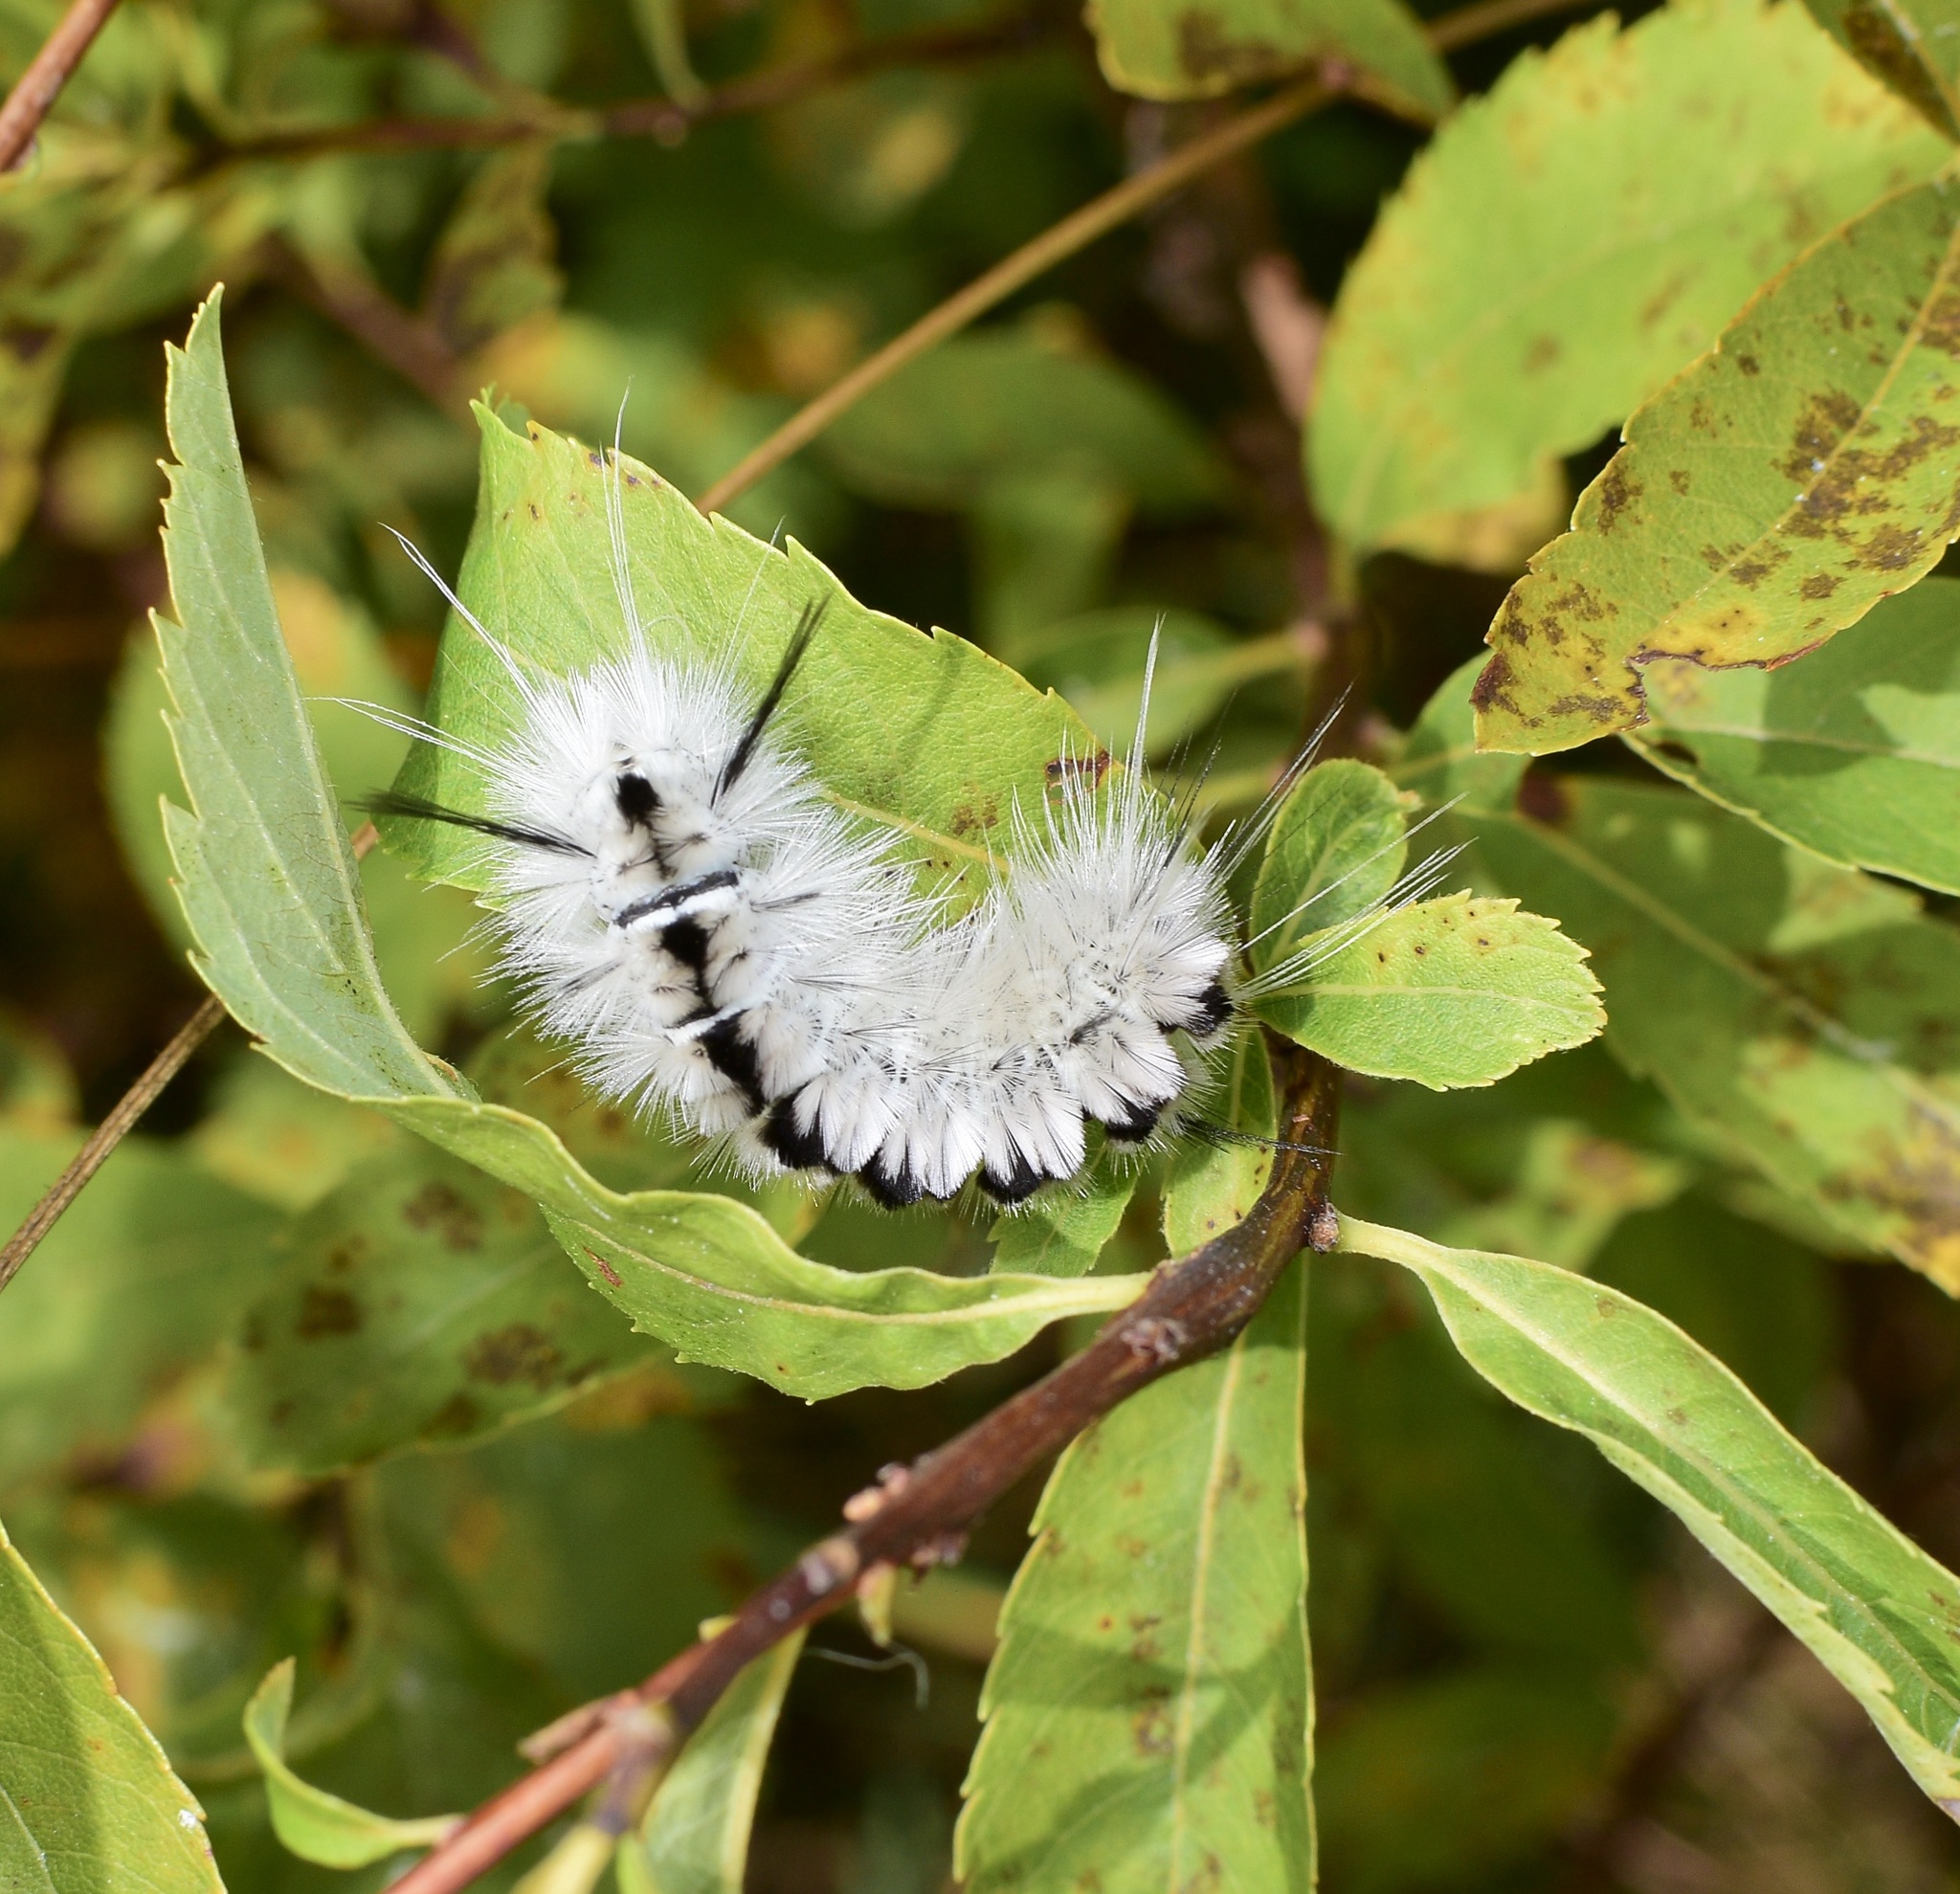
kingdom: Animalia
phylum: Arthropoda
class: Insecta
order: Lepidoptera
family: Erebidae
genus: Lophocampa
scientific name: Lophocampa caryae
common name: Hickory tussock moth
